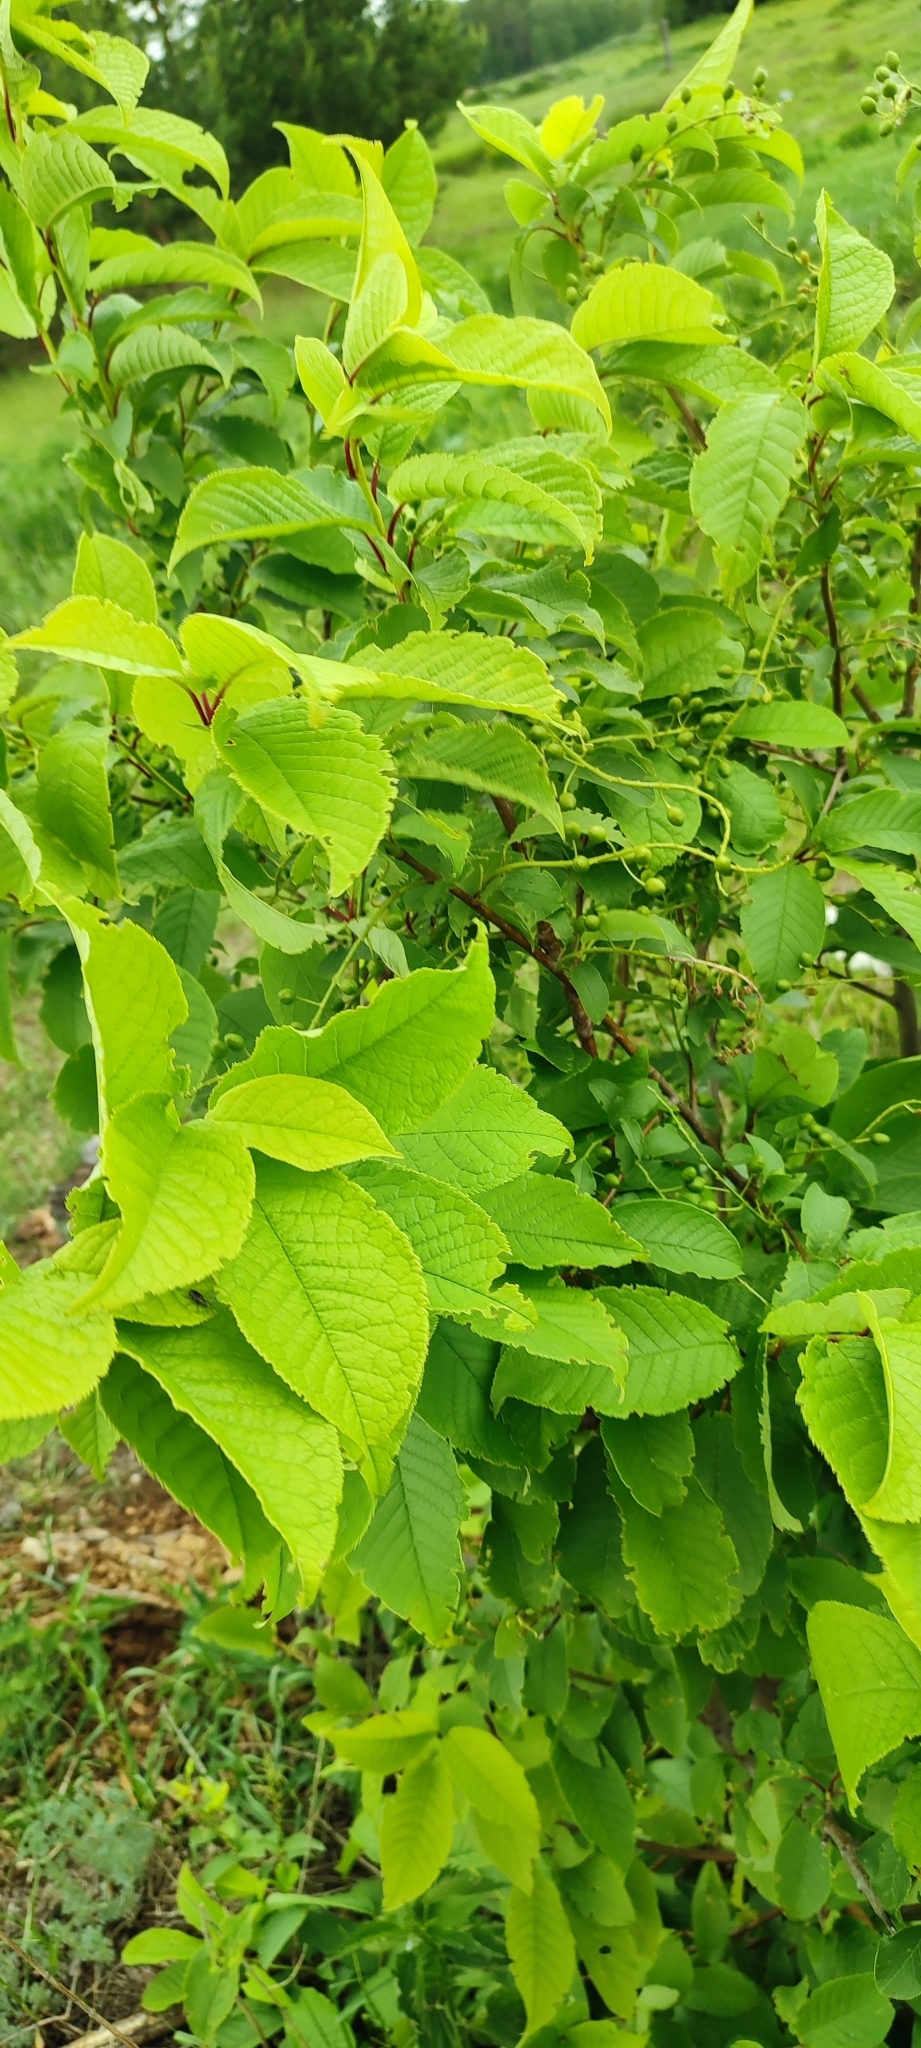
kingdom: Plantae
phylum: Tracheophyta
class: Magnoliopsida
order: Rosales
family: Rosaceae
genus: Prunus
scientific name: Prunus padus
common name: Bird cherry
